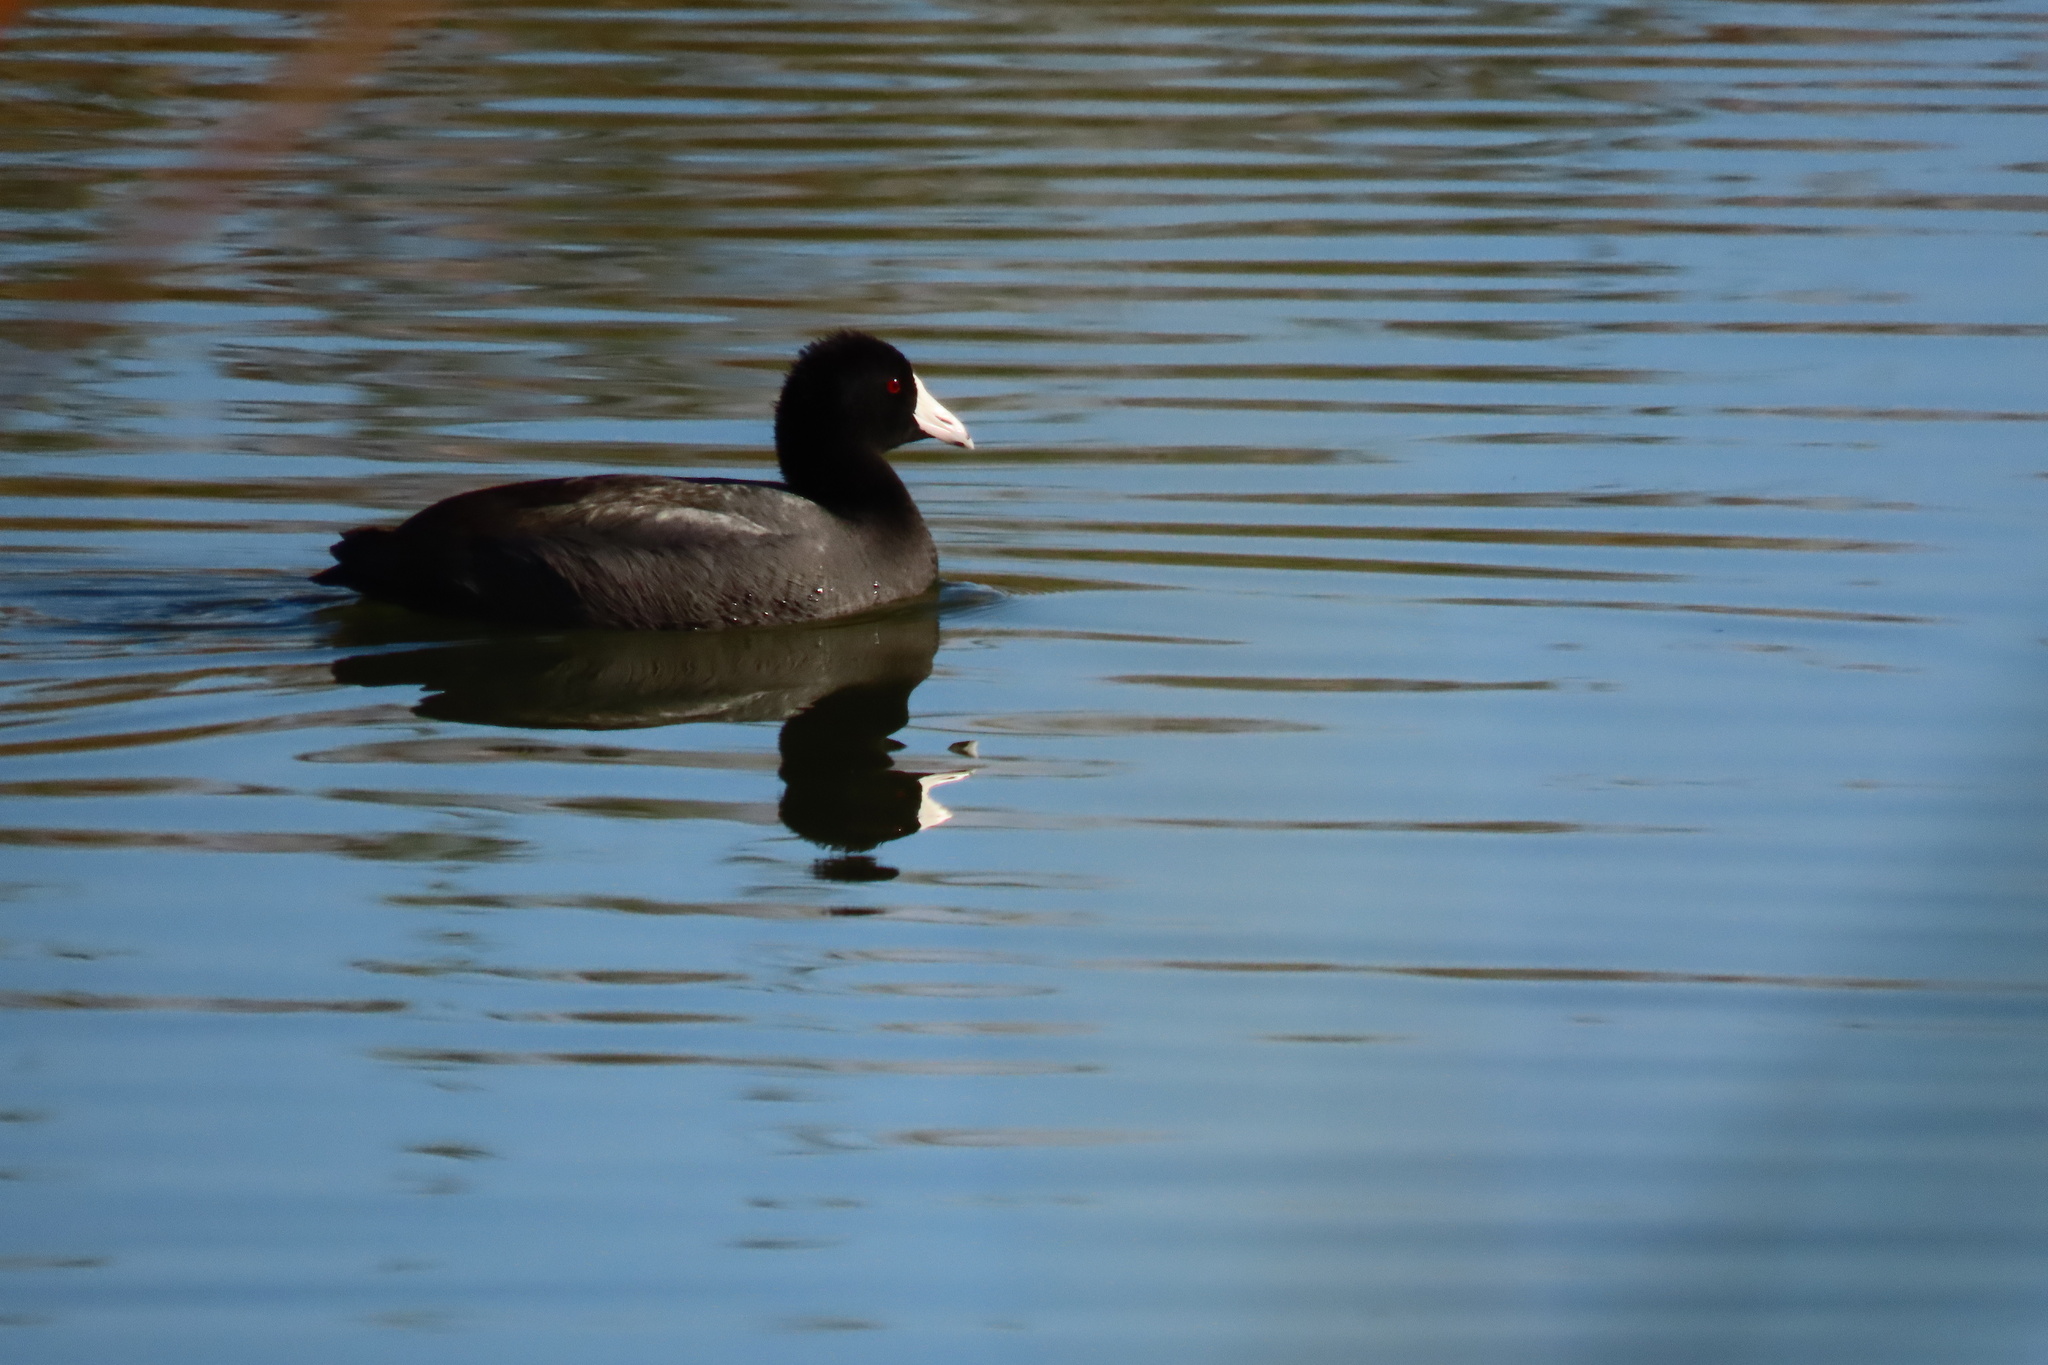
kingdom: Animalia
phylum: Chordata
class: Aves
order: Gruiformes
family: Rallidae
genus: Fulica
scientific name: Fulica americana
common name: American coot
